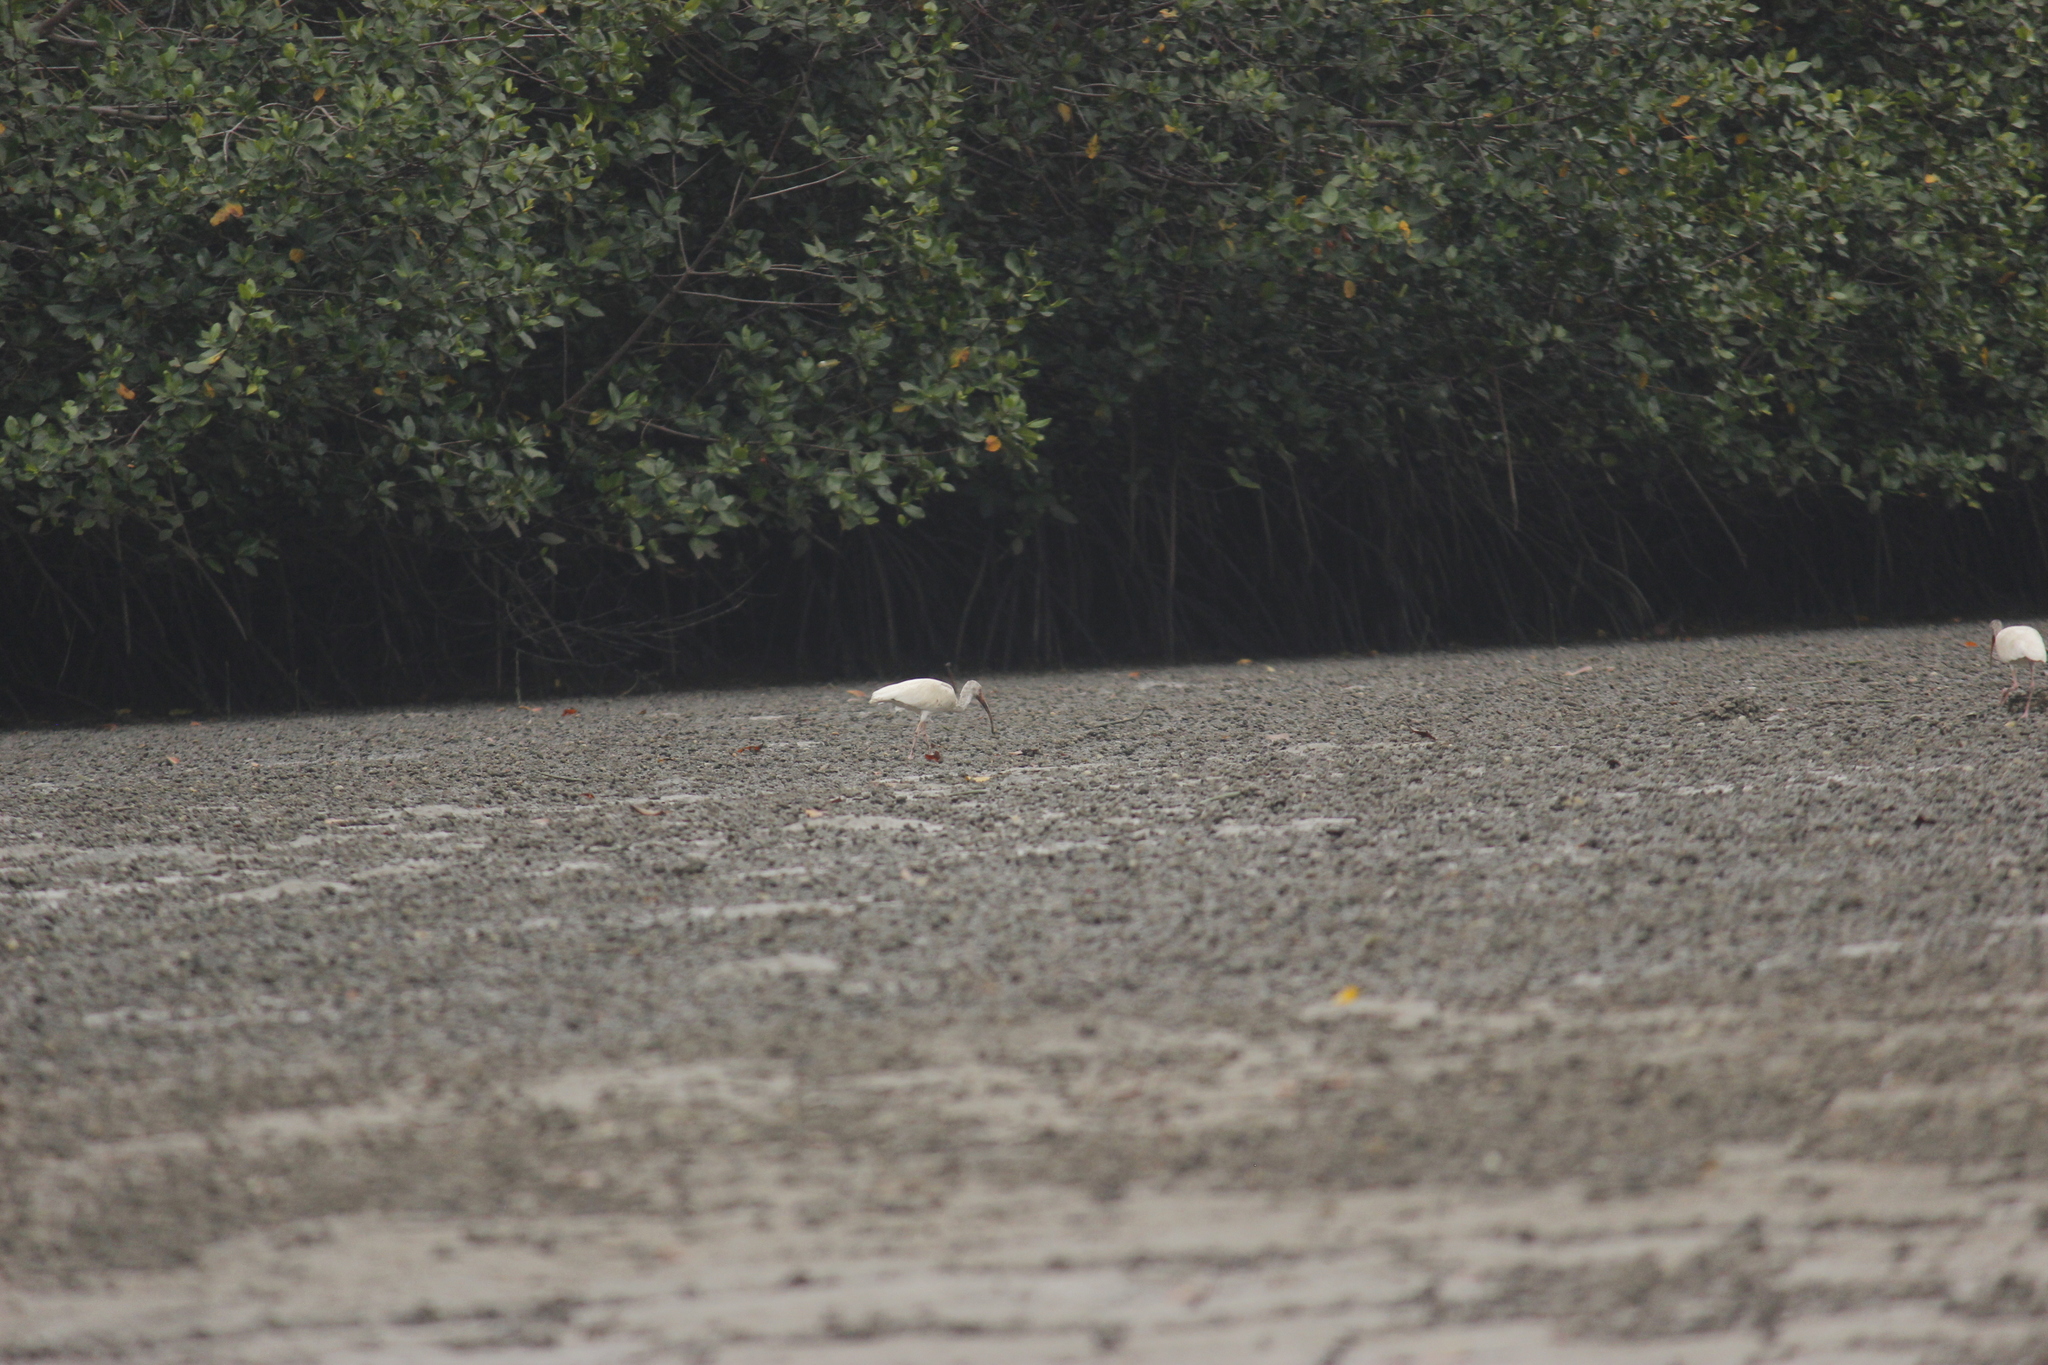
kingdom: Animalia
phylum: Chordata
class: Aves
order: Pelecaniformes
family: Threskiornithidae
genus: Eudocimus
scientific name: Eudocimus albus
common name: White ibis
